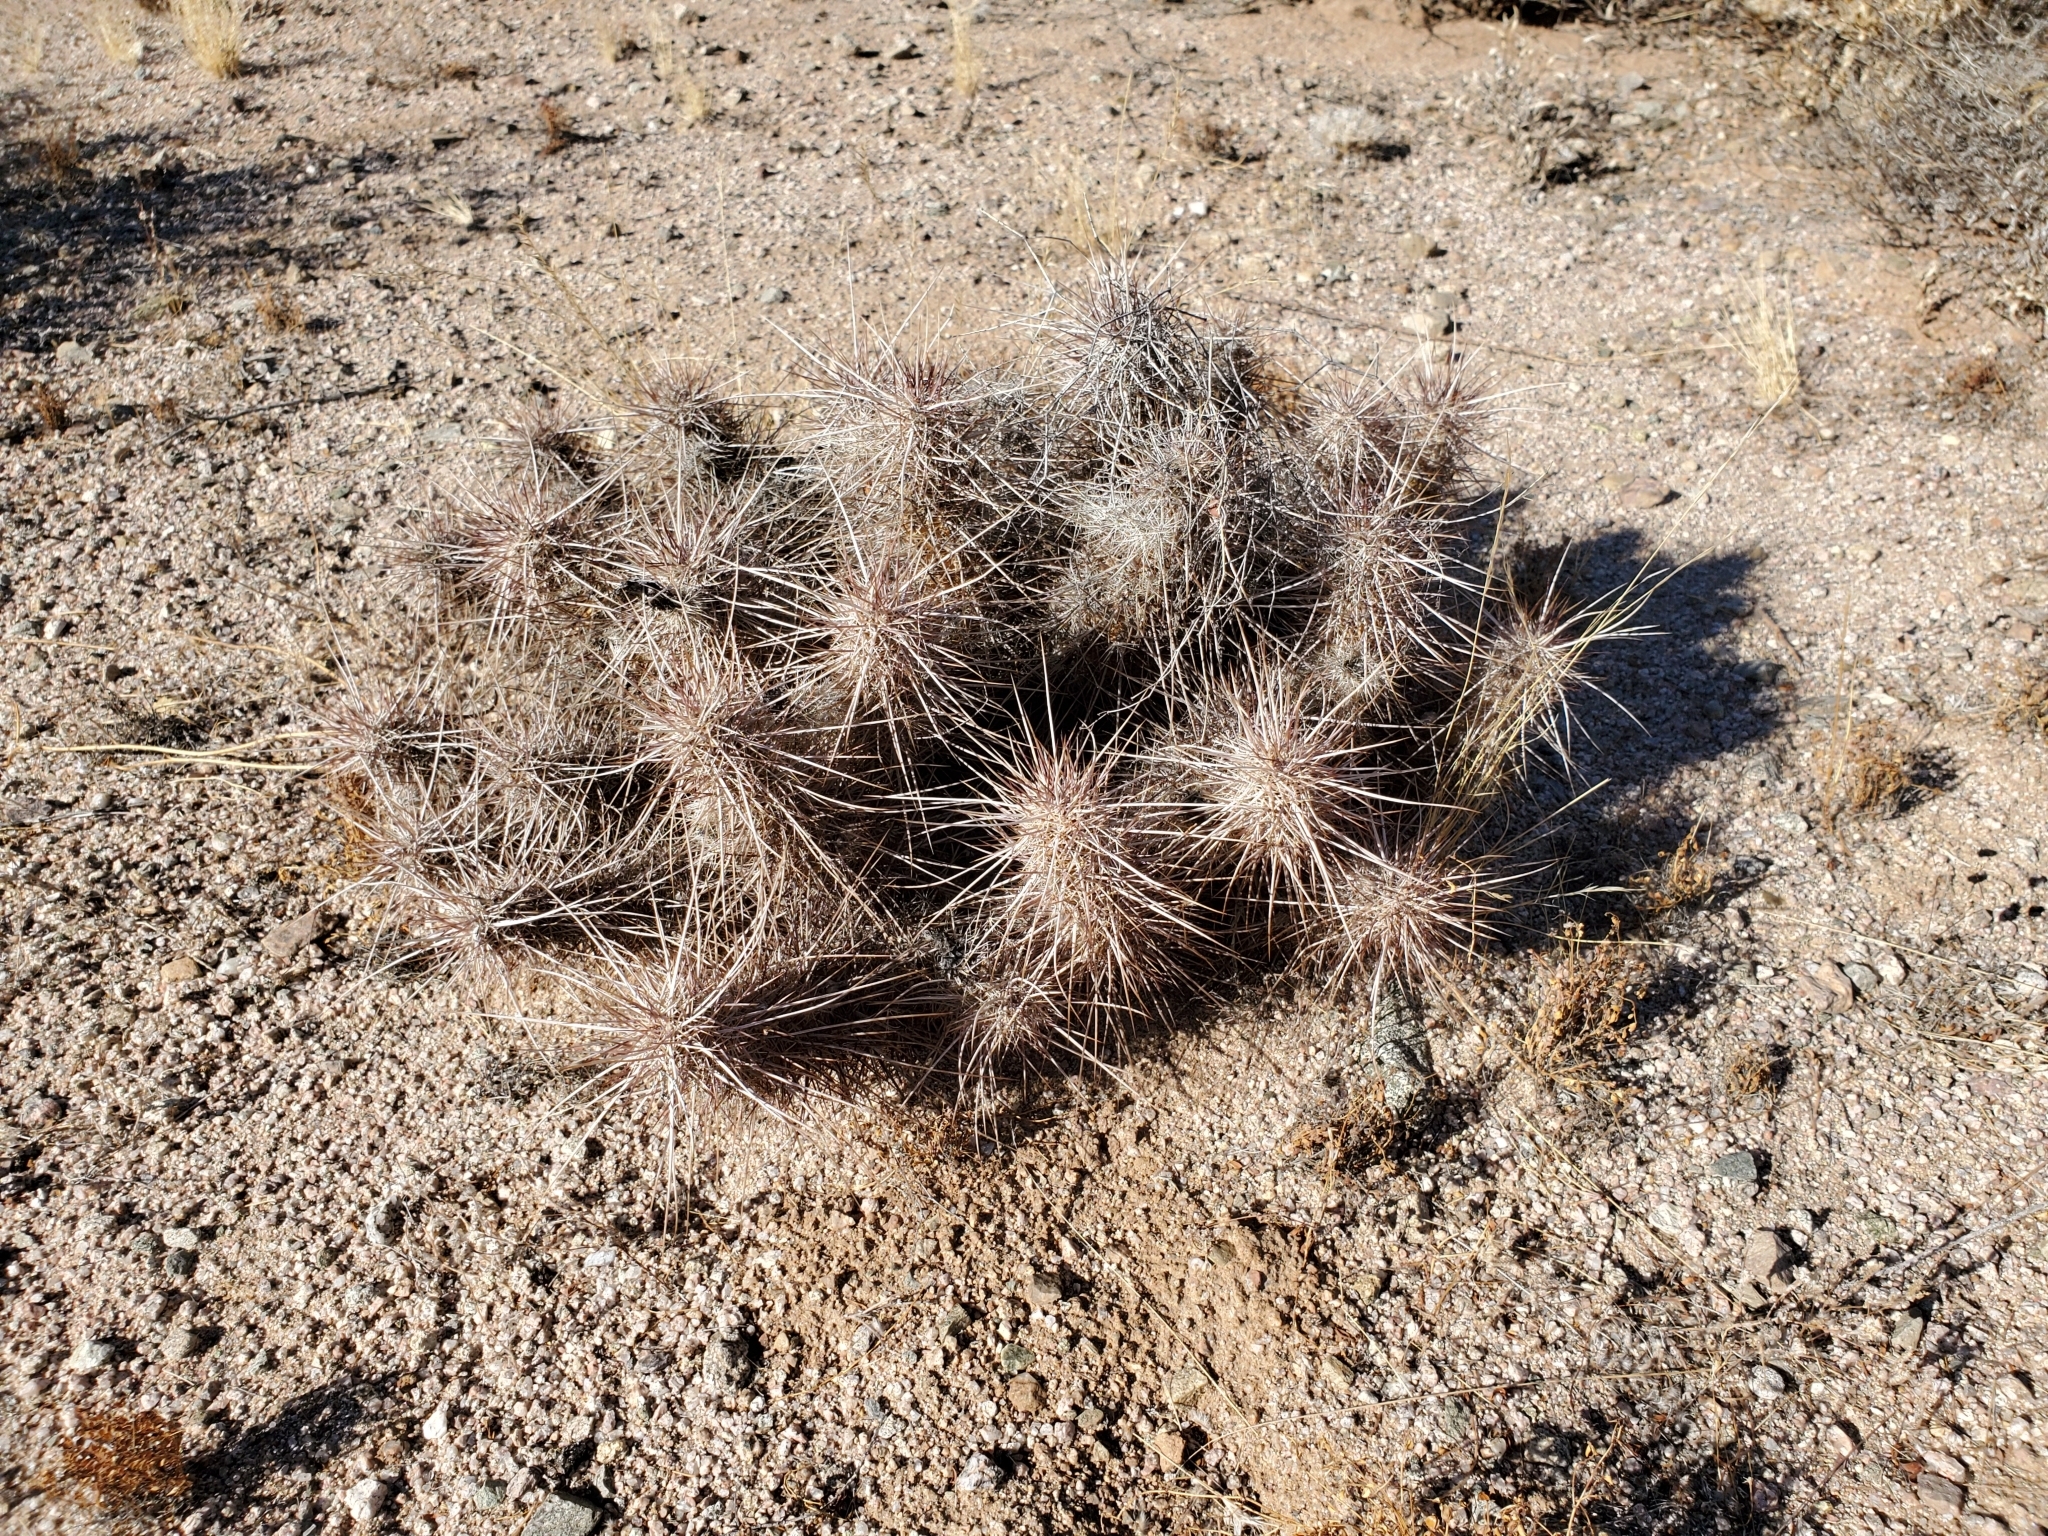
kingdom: Plantae
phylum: Tracheophyta
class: Magnoliopsida
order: Caryophyllales
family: Cactaceae
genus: Echinocereus
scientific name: Echinocereus engelmannii
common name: Engelmann's hedgehog cactus
